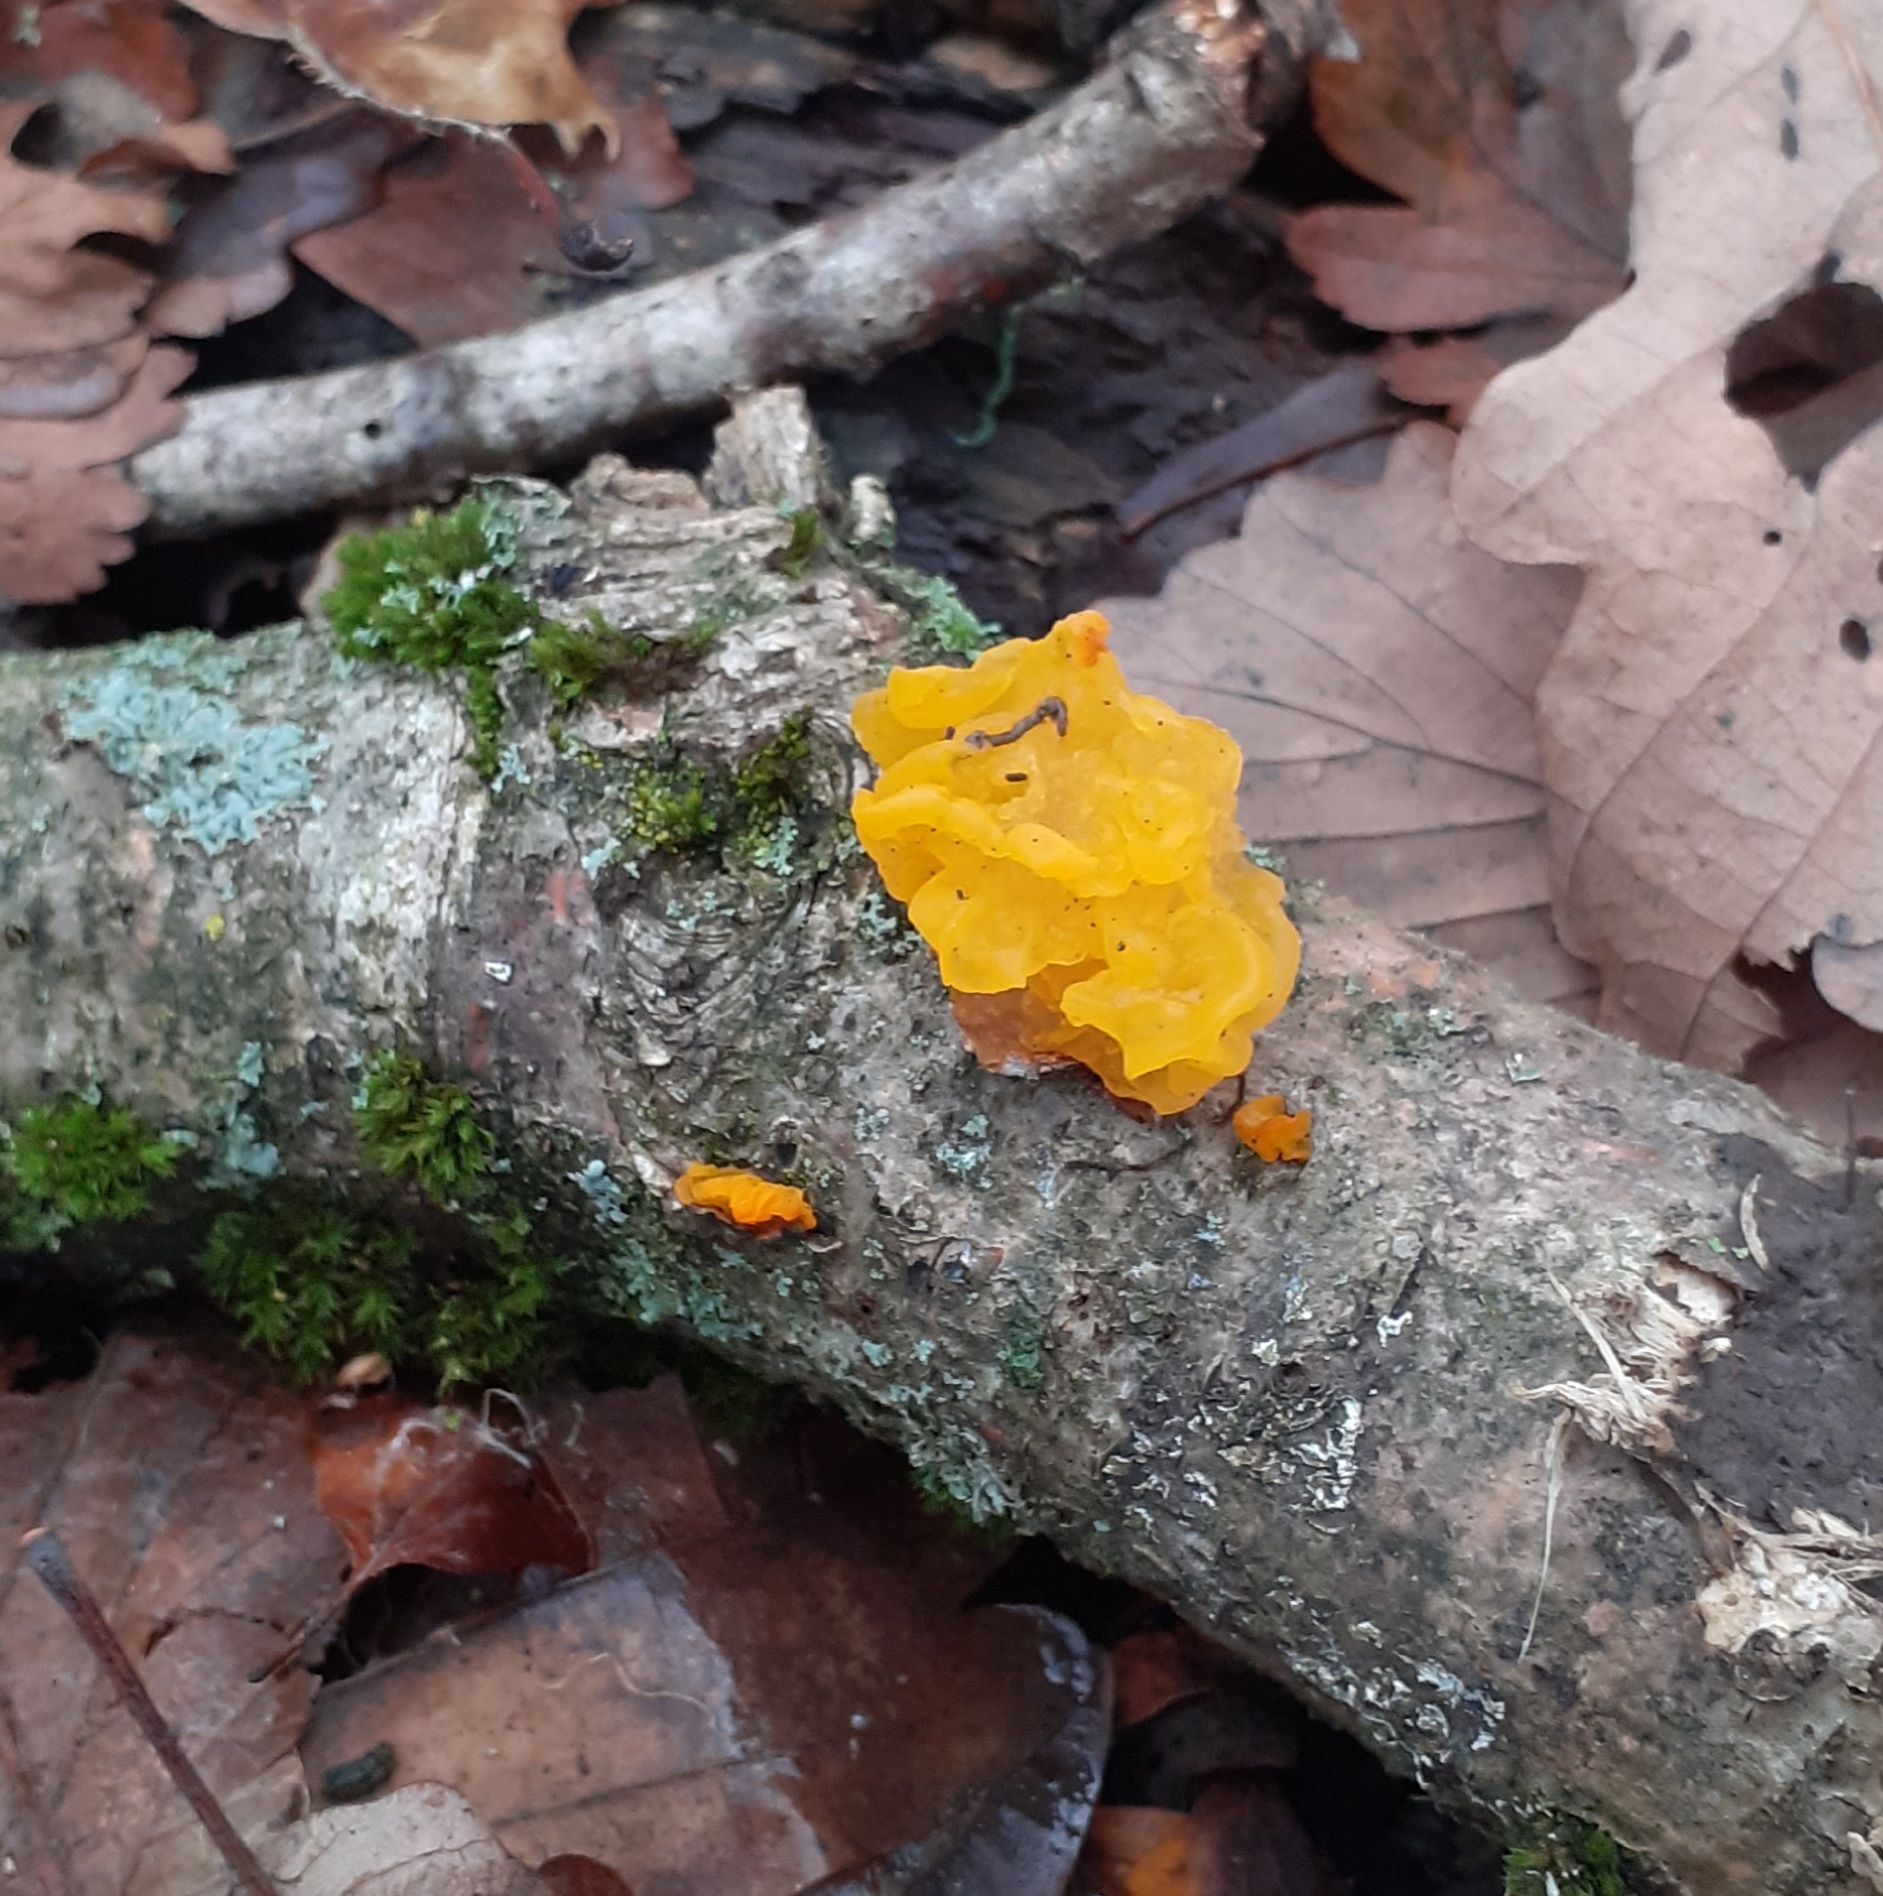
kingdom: Fungi
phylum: Basidiomycota
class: Tremellomycetes
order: Tremellales
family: Tremellaceae
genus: Tremella
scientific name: Tremella mesenterica
